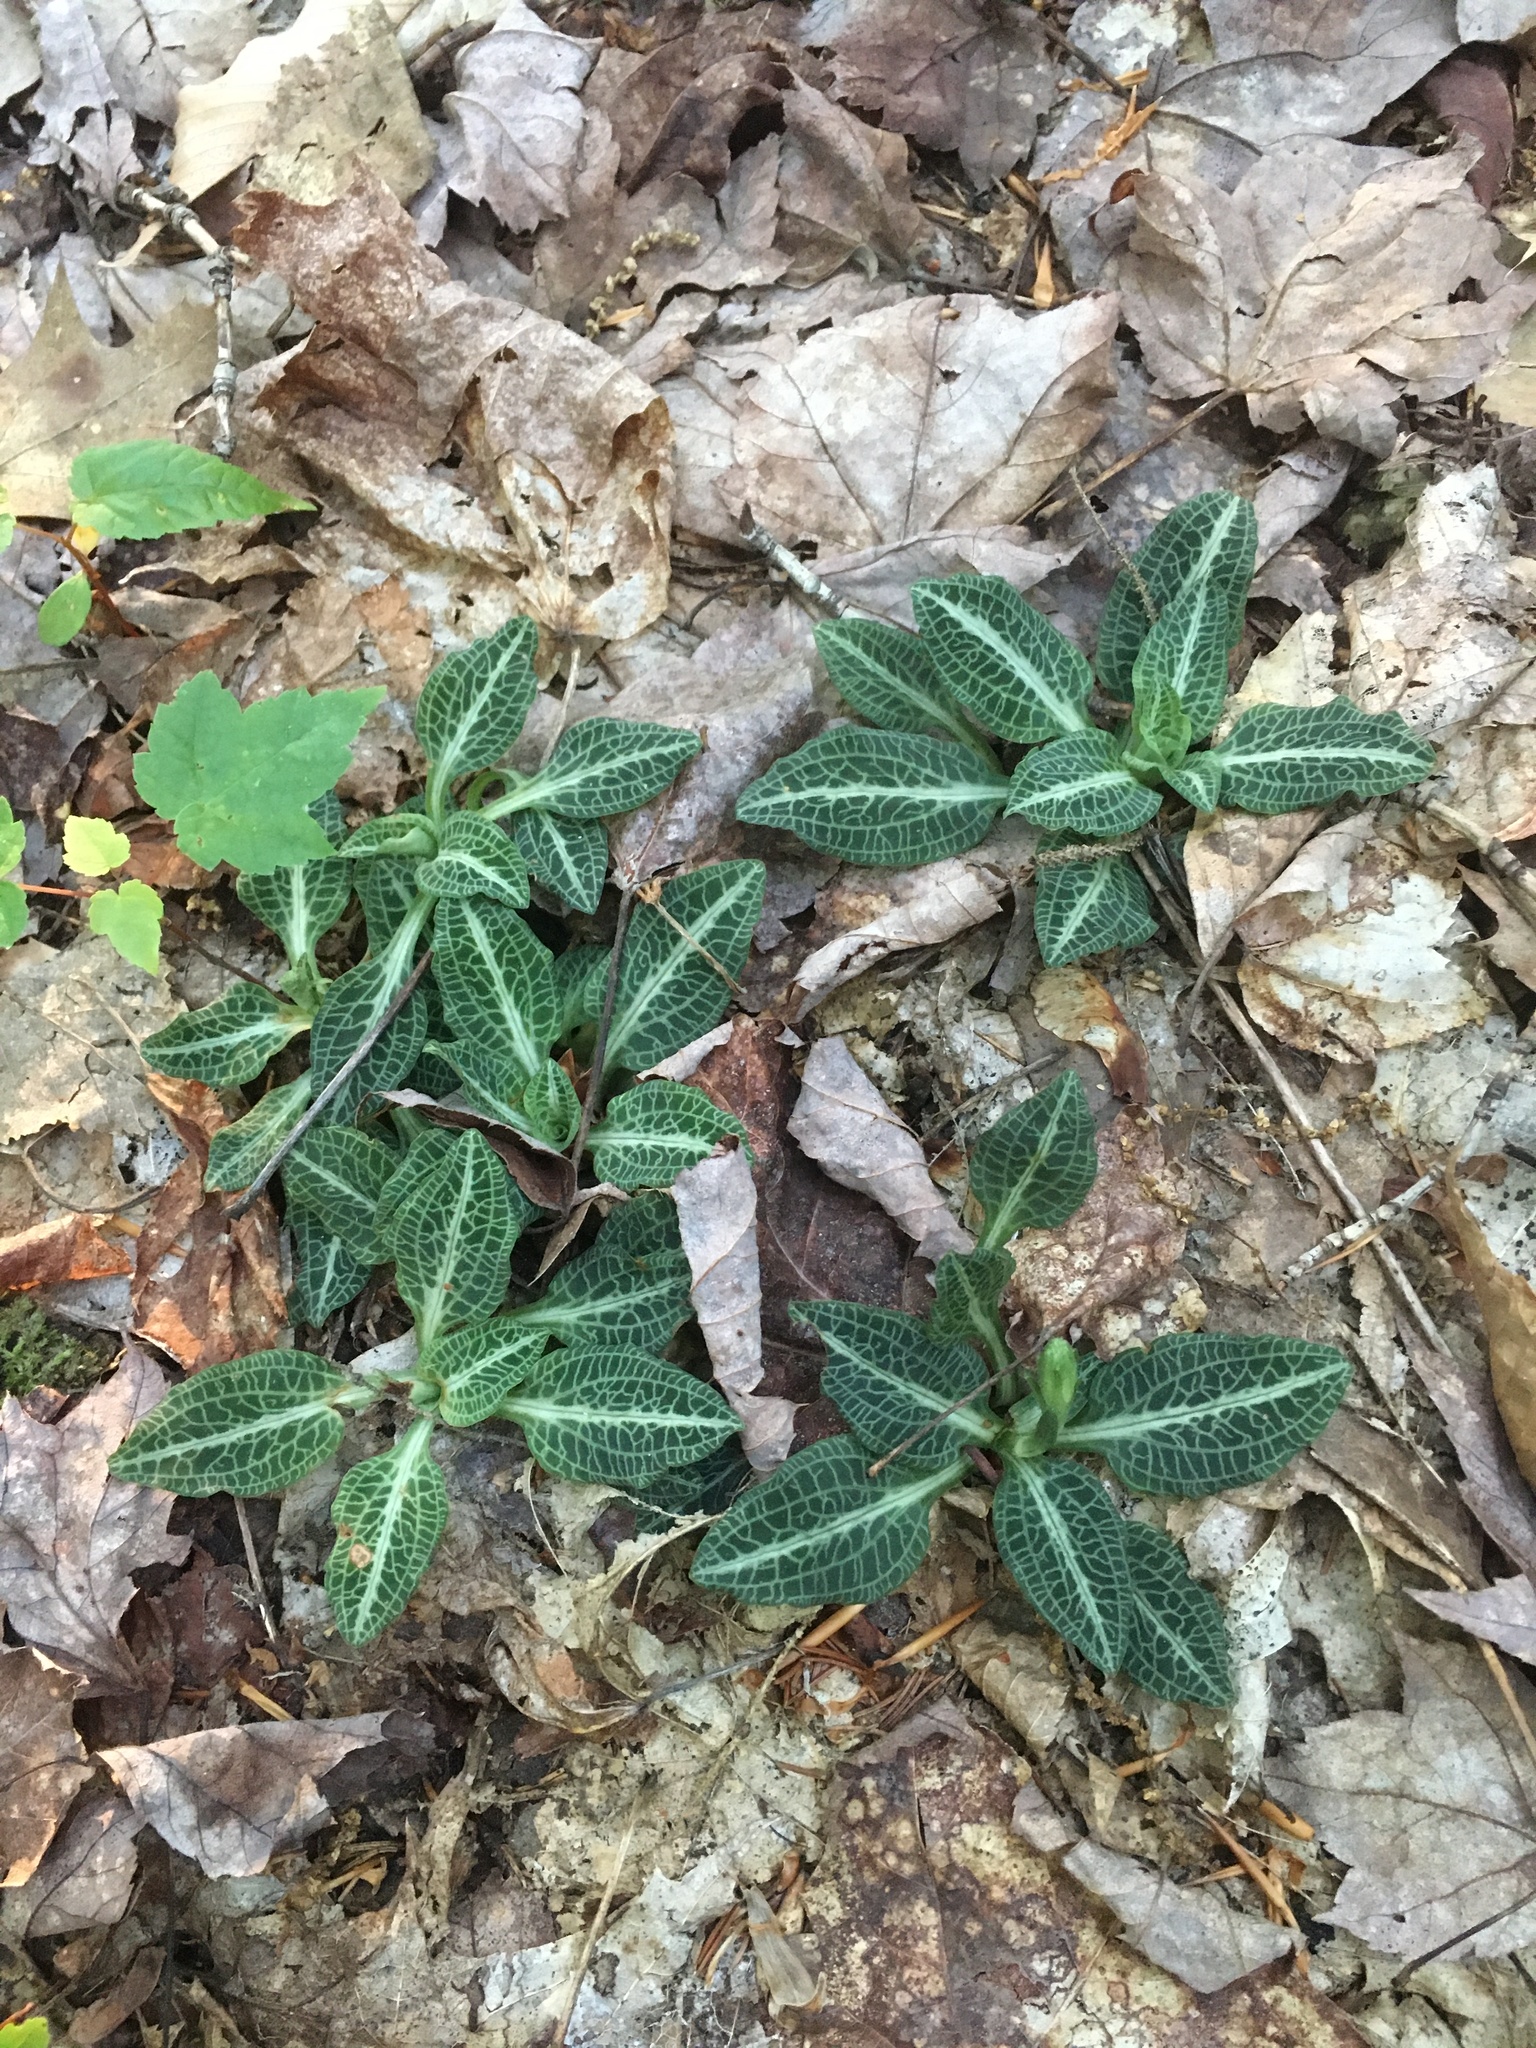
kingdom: Plantae
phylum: Tracheophyta
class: Liliopsida
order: Asparagales
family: Orchidaceae
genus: Goodyera
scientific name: Goodyera pubescens
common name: Downy rattlesnake-plantain
